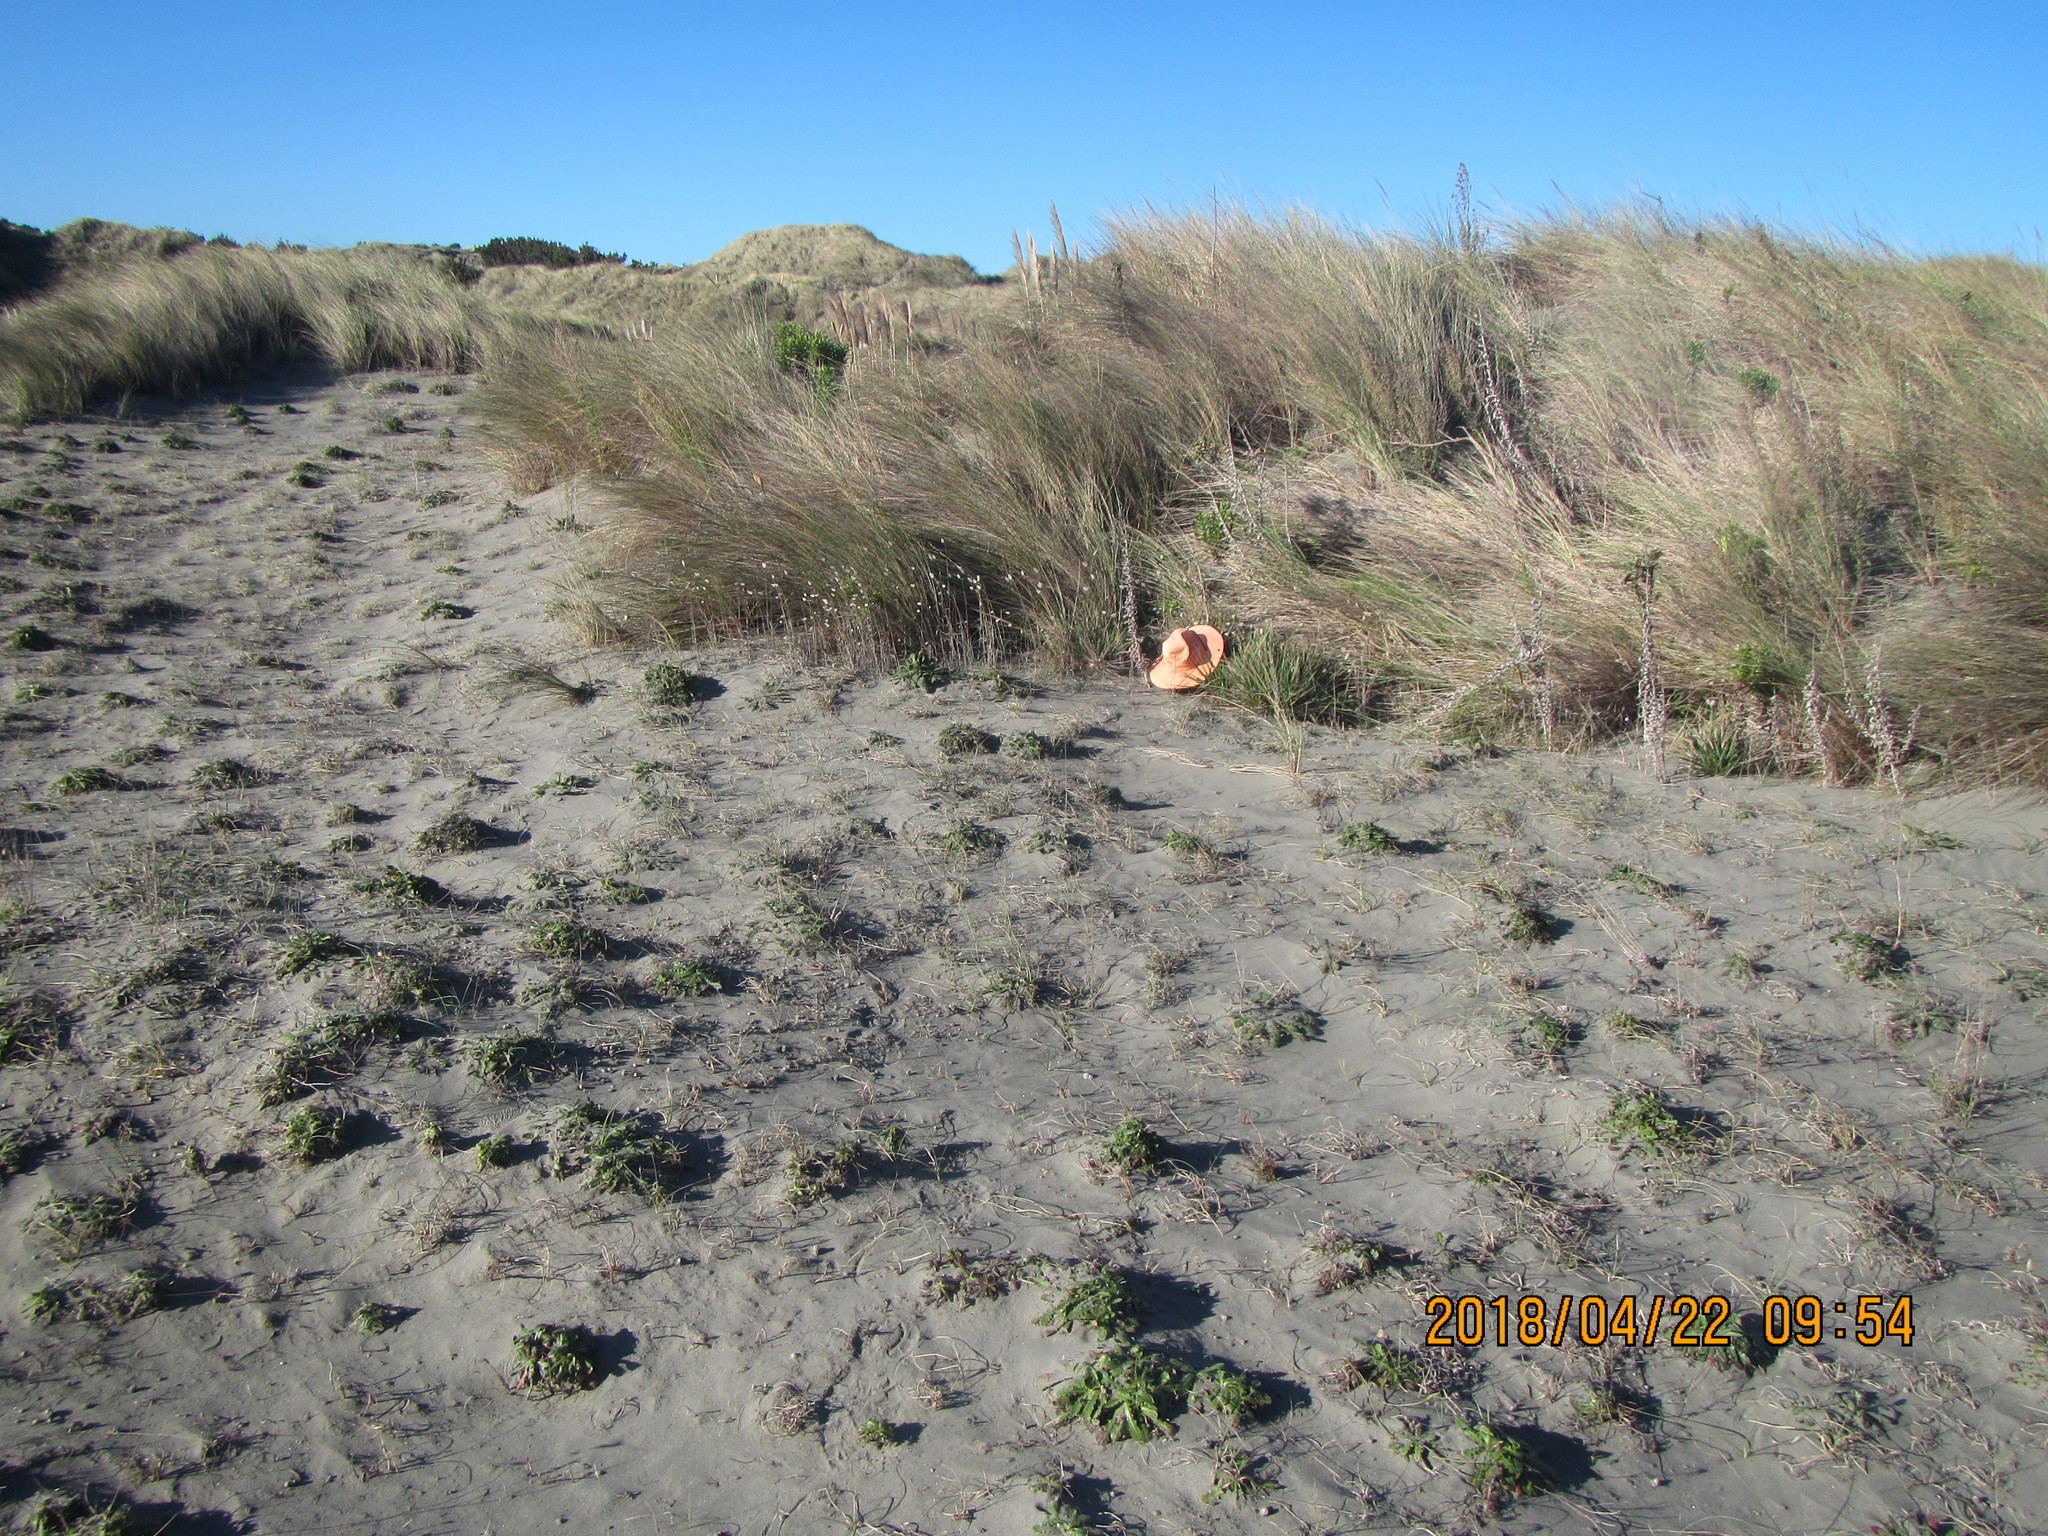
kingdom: Plantae
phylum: Tracheophyta
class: Liliopsida
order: Poales
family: Poaceae
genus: Lachnagrostis
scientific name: Lachnagrostis billardierei
